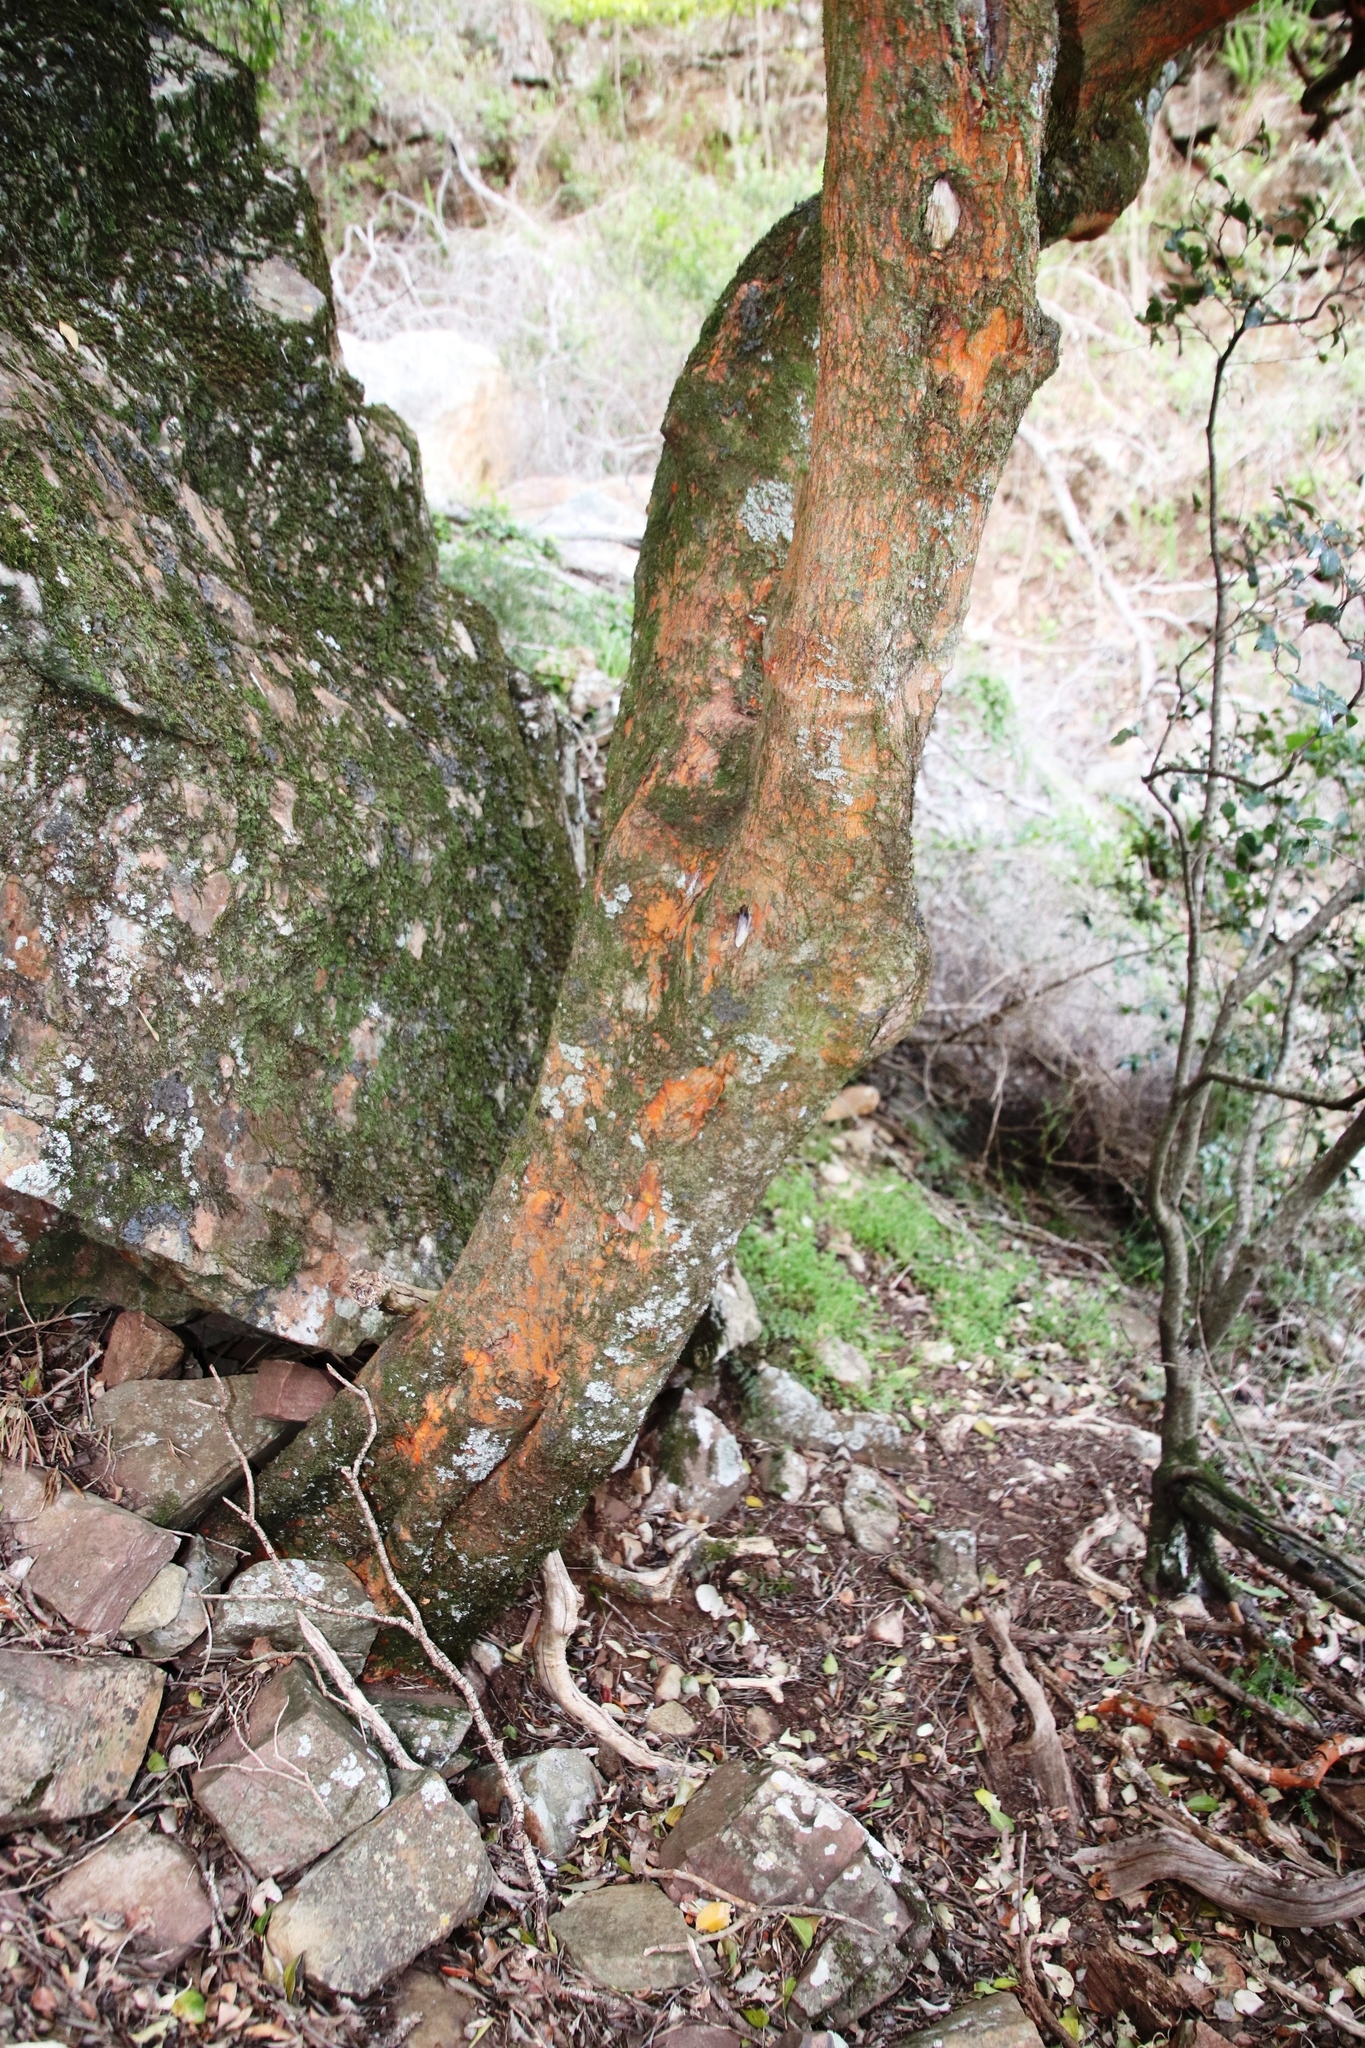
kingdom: Plantae
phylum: Tracheophyta
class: Magnoliopsida
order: Celastrales
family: Celastraceae
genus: Cassine
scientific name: Cassine peragua
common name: Cape saffron
